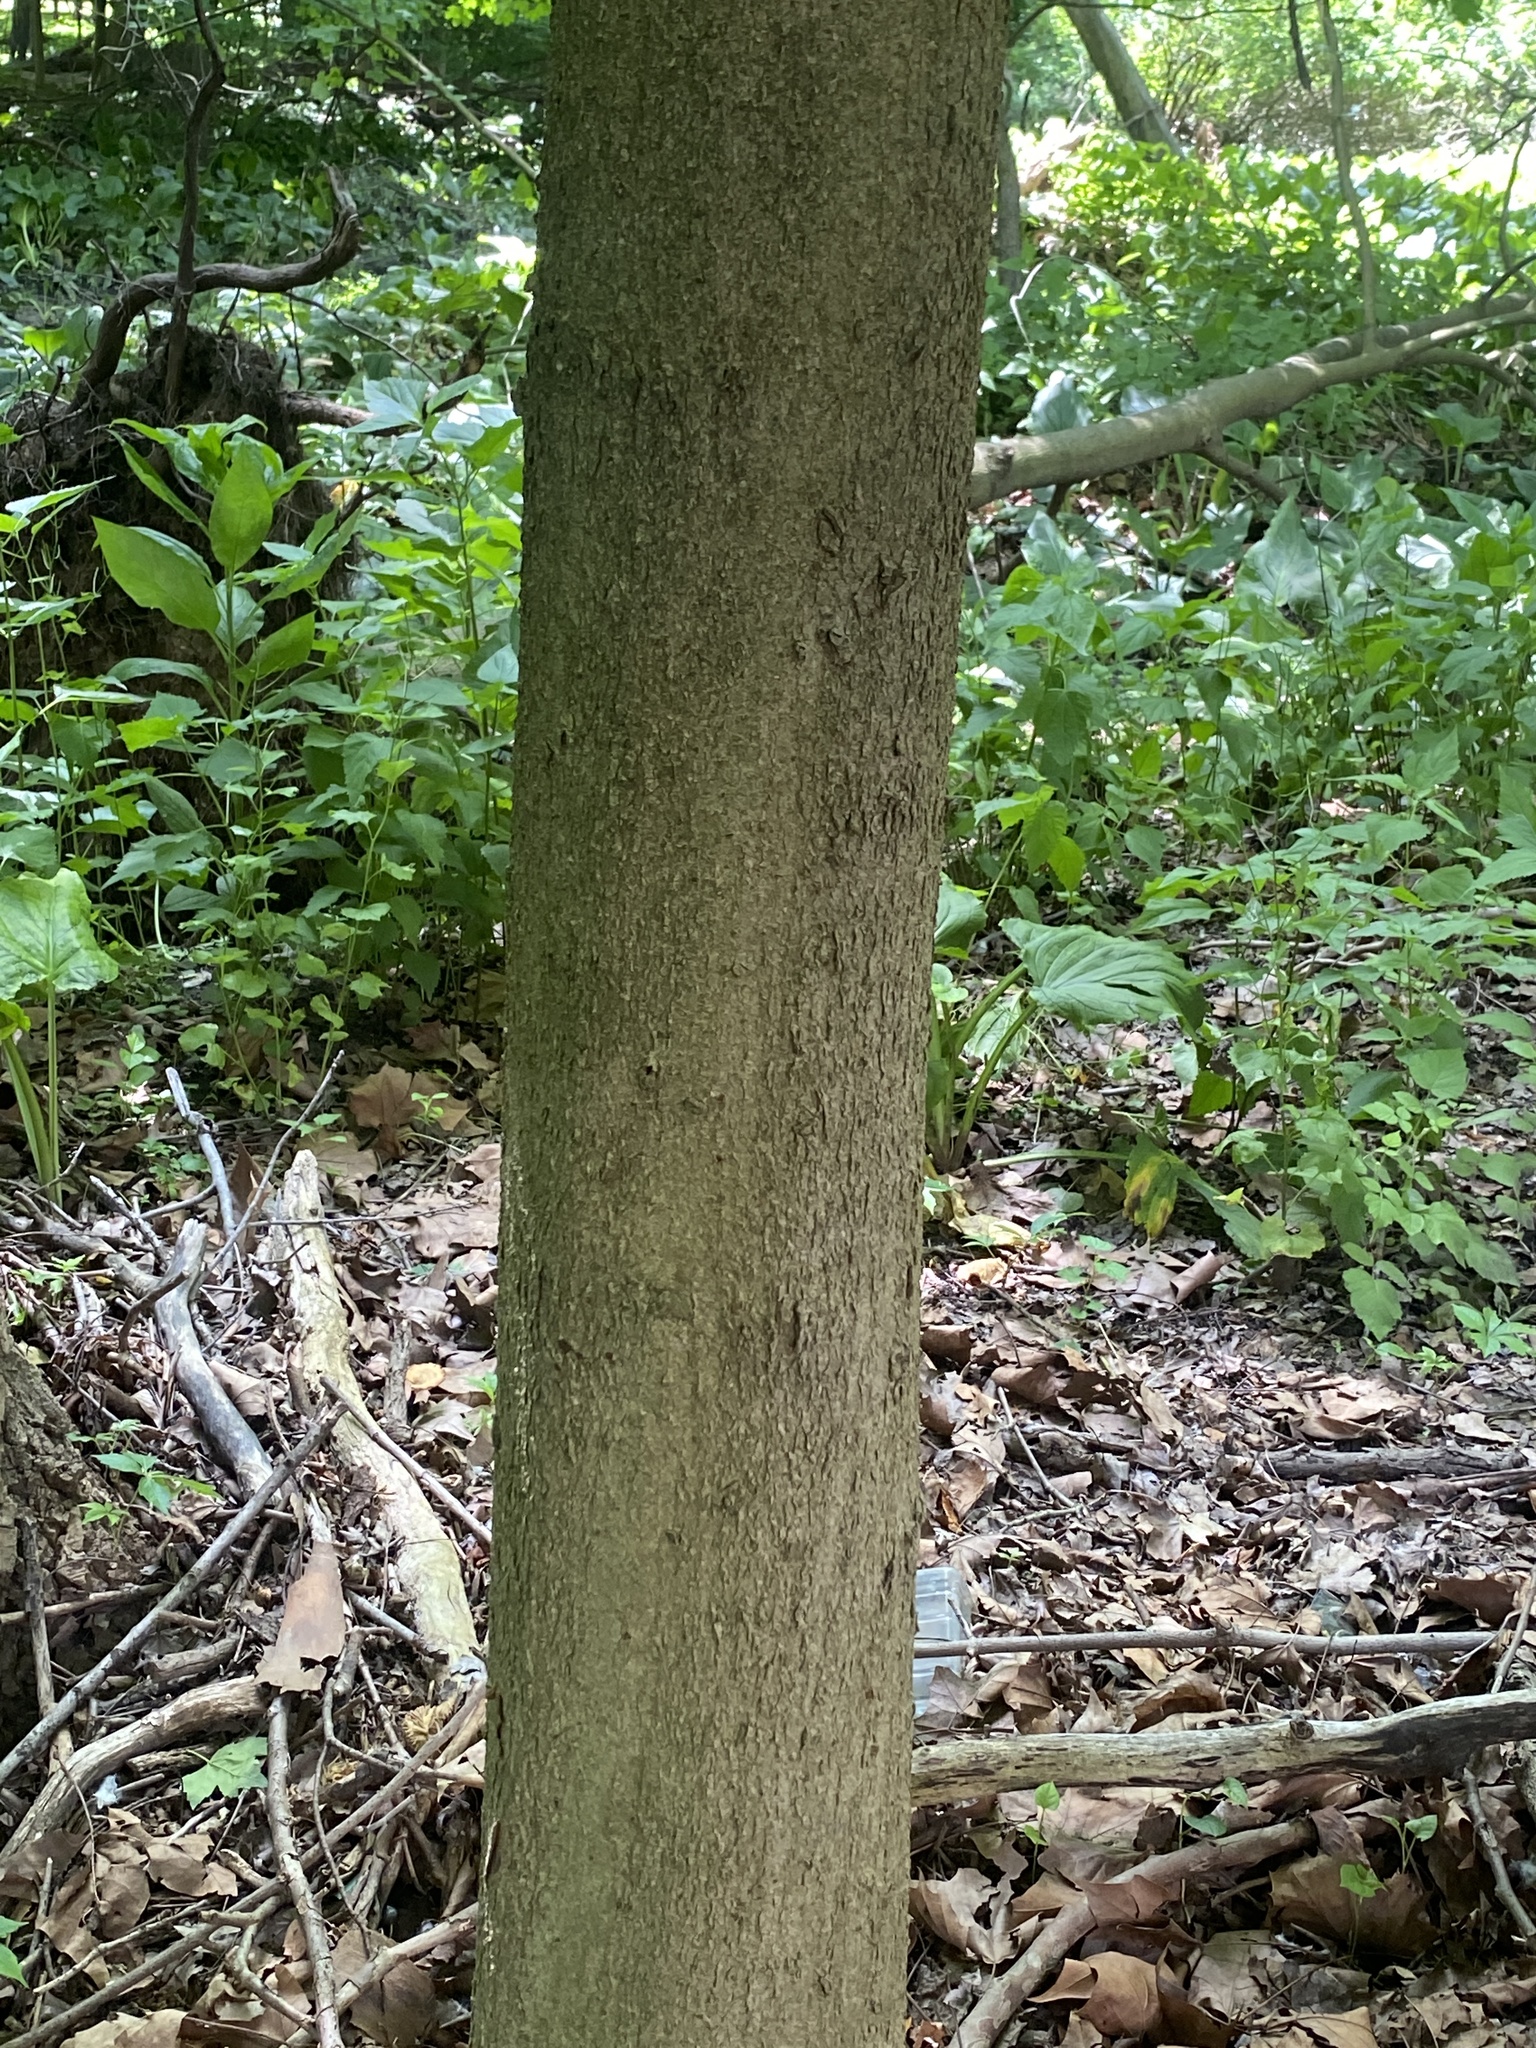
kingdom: Plantae
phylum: Tracheophyta
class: Magnoliopsida
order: Sapindales
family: Sapindaceae
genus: Aesculus
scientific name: Aesculus flava
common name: Yellow buckeye
